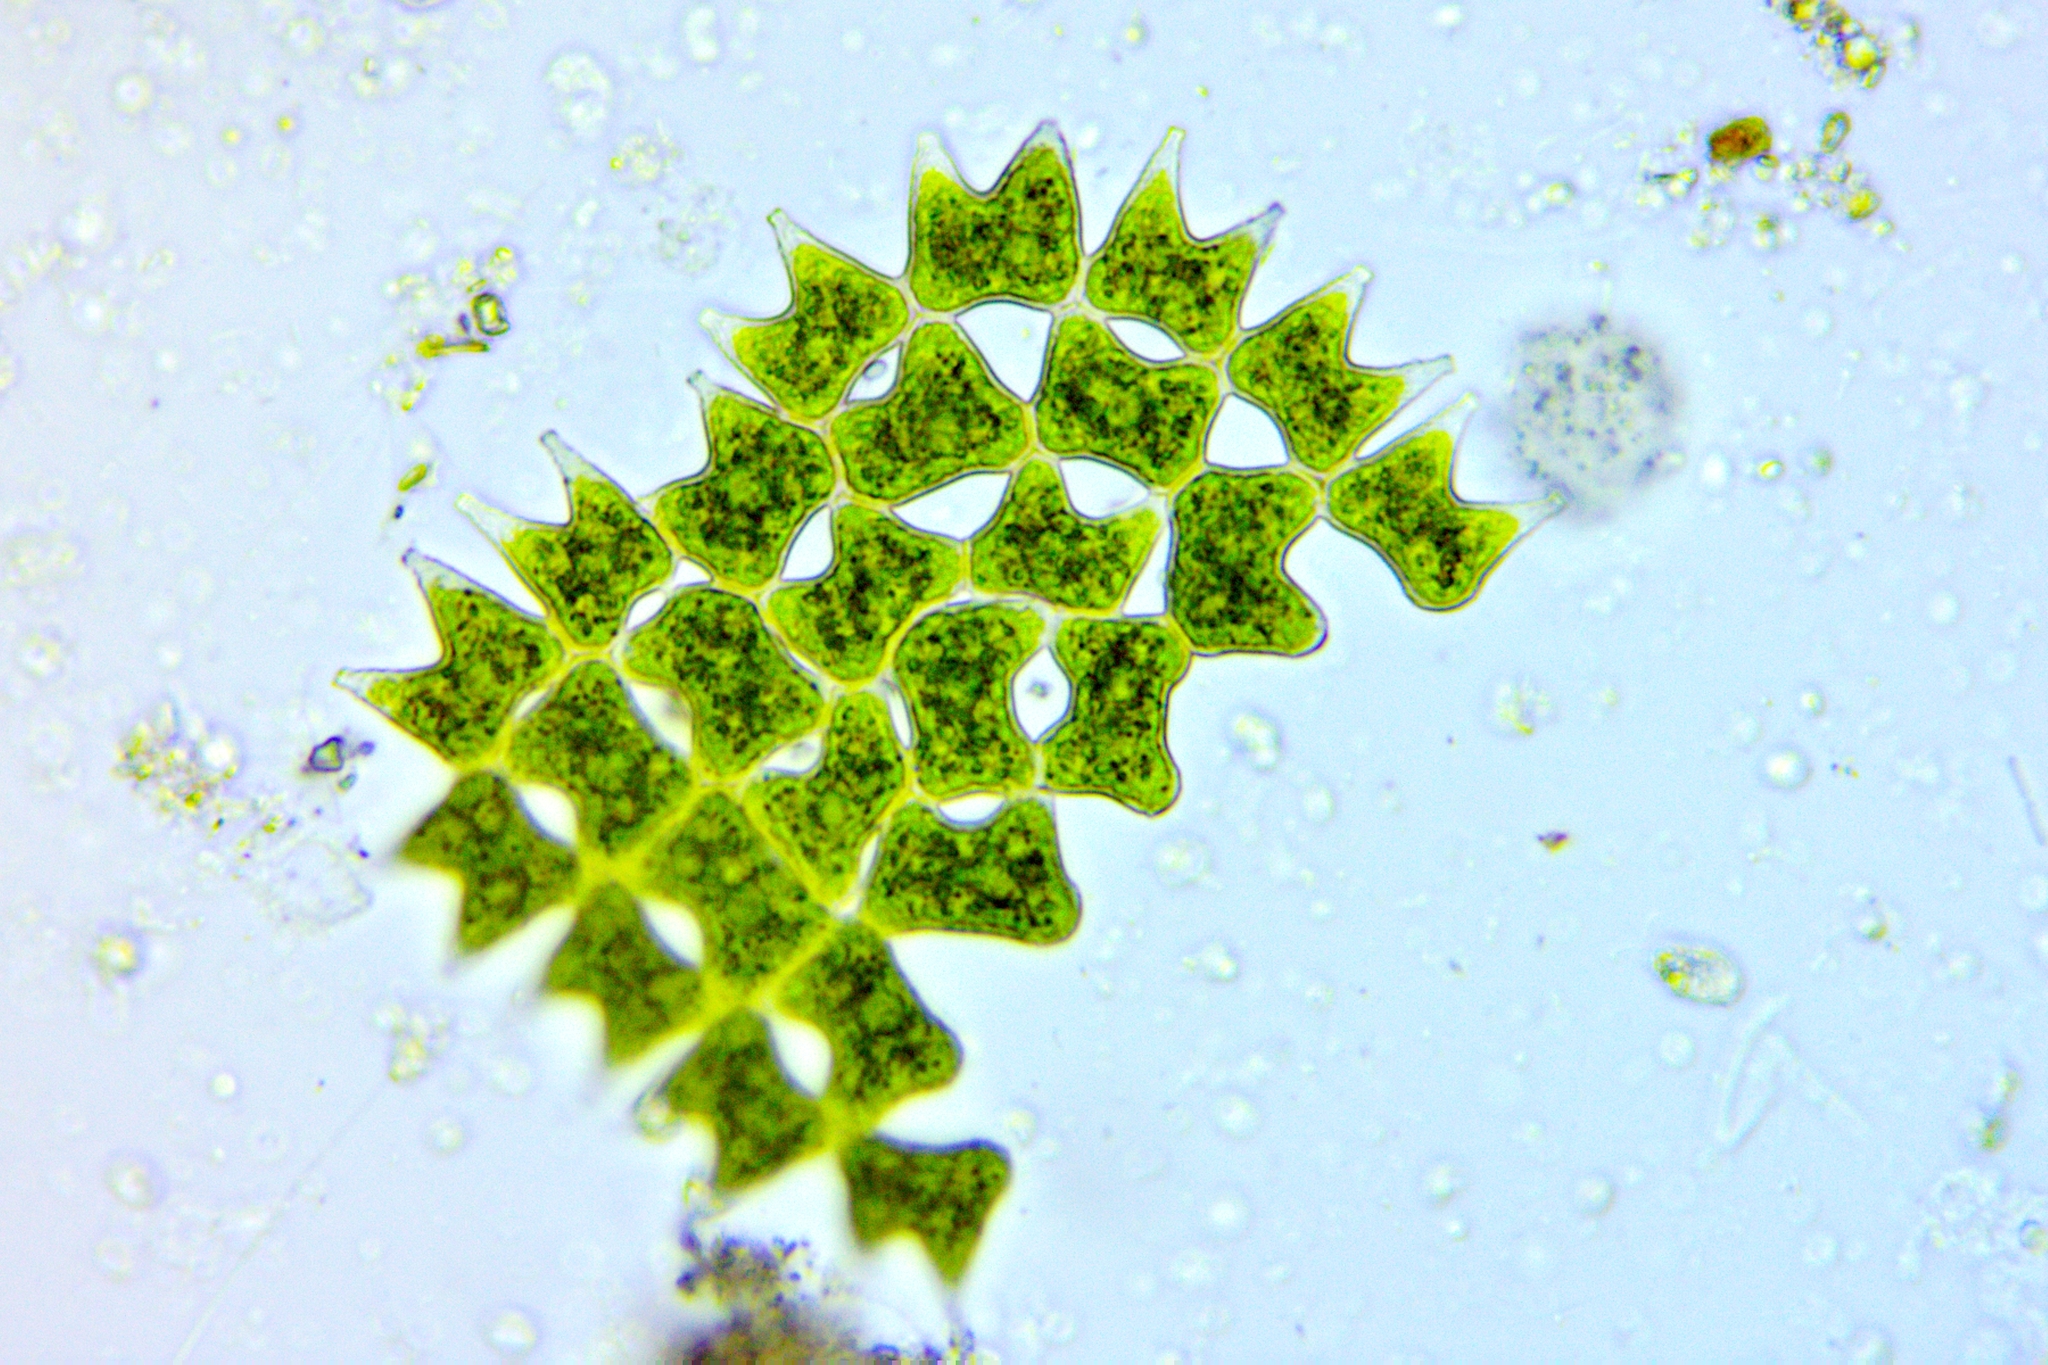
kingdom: Plantae
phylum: Chlorophyta
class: Chlorophyceae
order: Sphaeropleales
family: Hydrodictyaceae
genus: Pediastrum
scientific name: Pediastrum duplex
